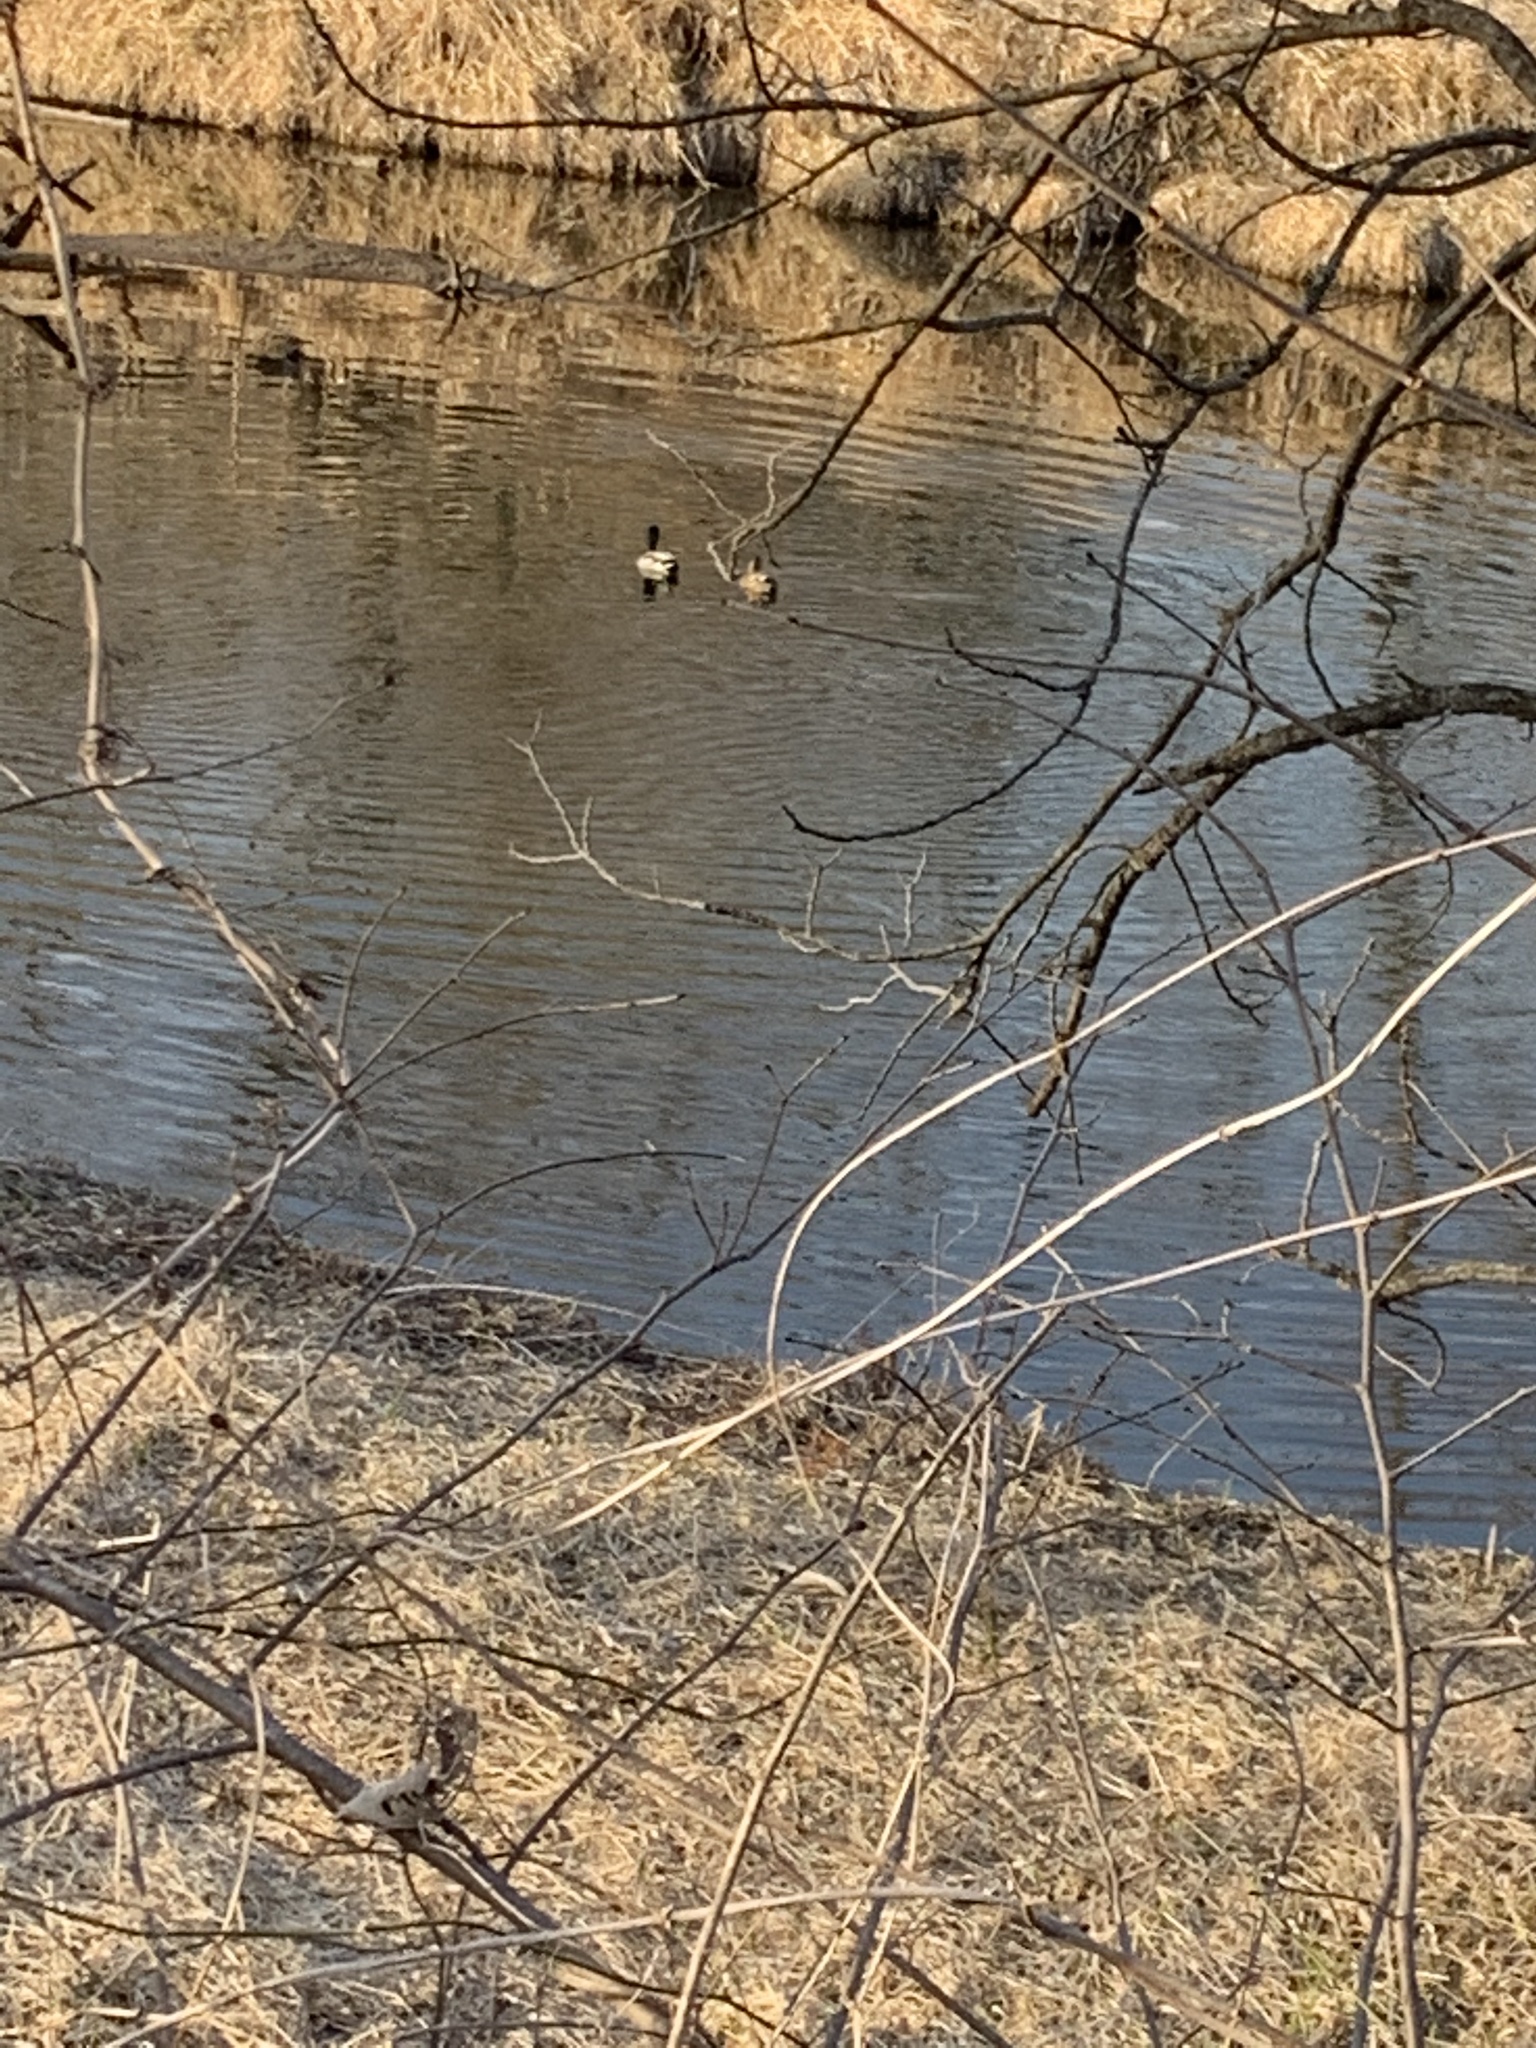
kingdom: Animalia
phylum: Chordata
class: Aves
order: Anseriformes
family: Anatidae
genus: Anas
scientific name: Anas platyrhynchos
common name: Mallard
